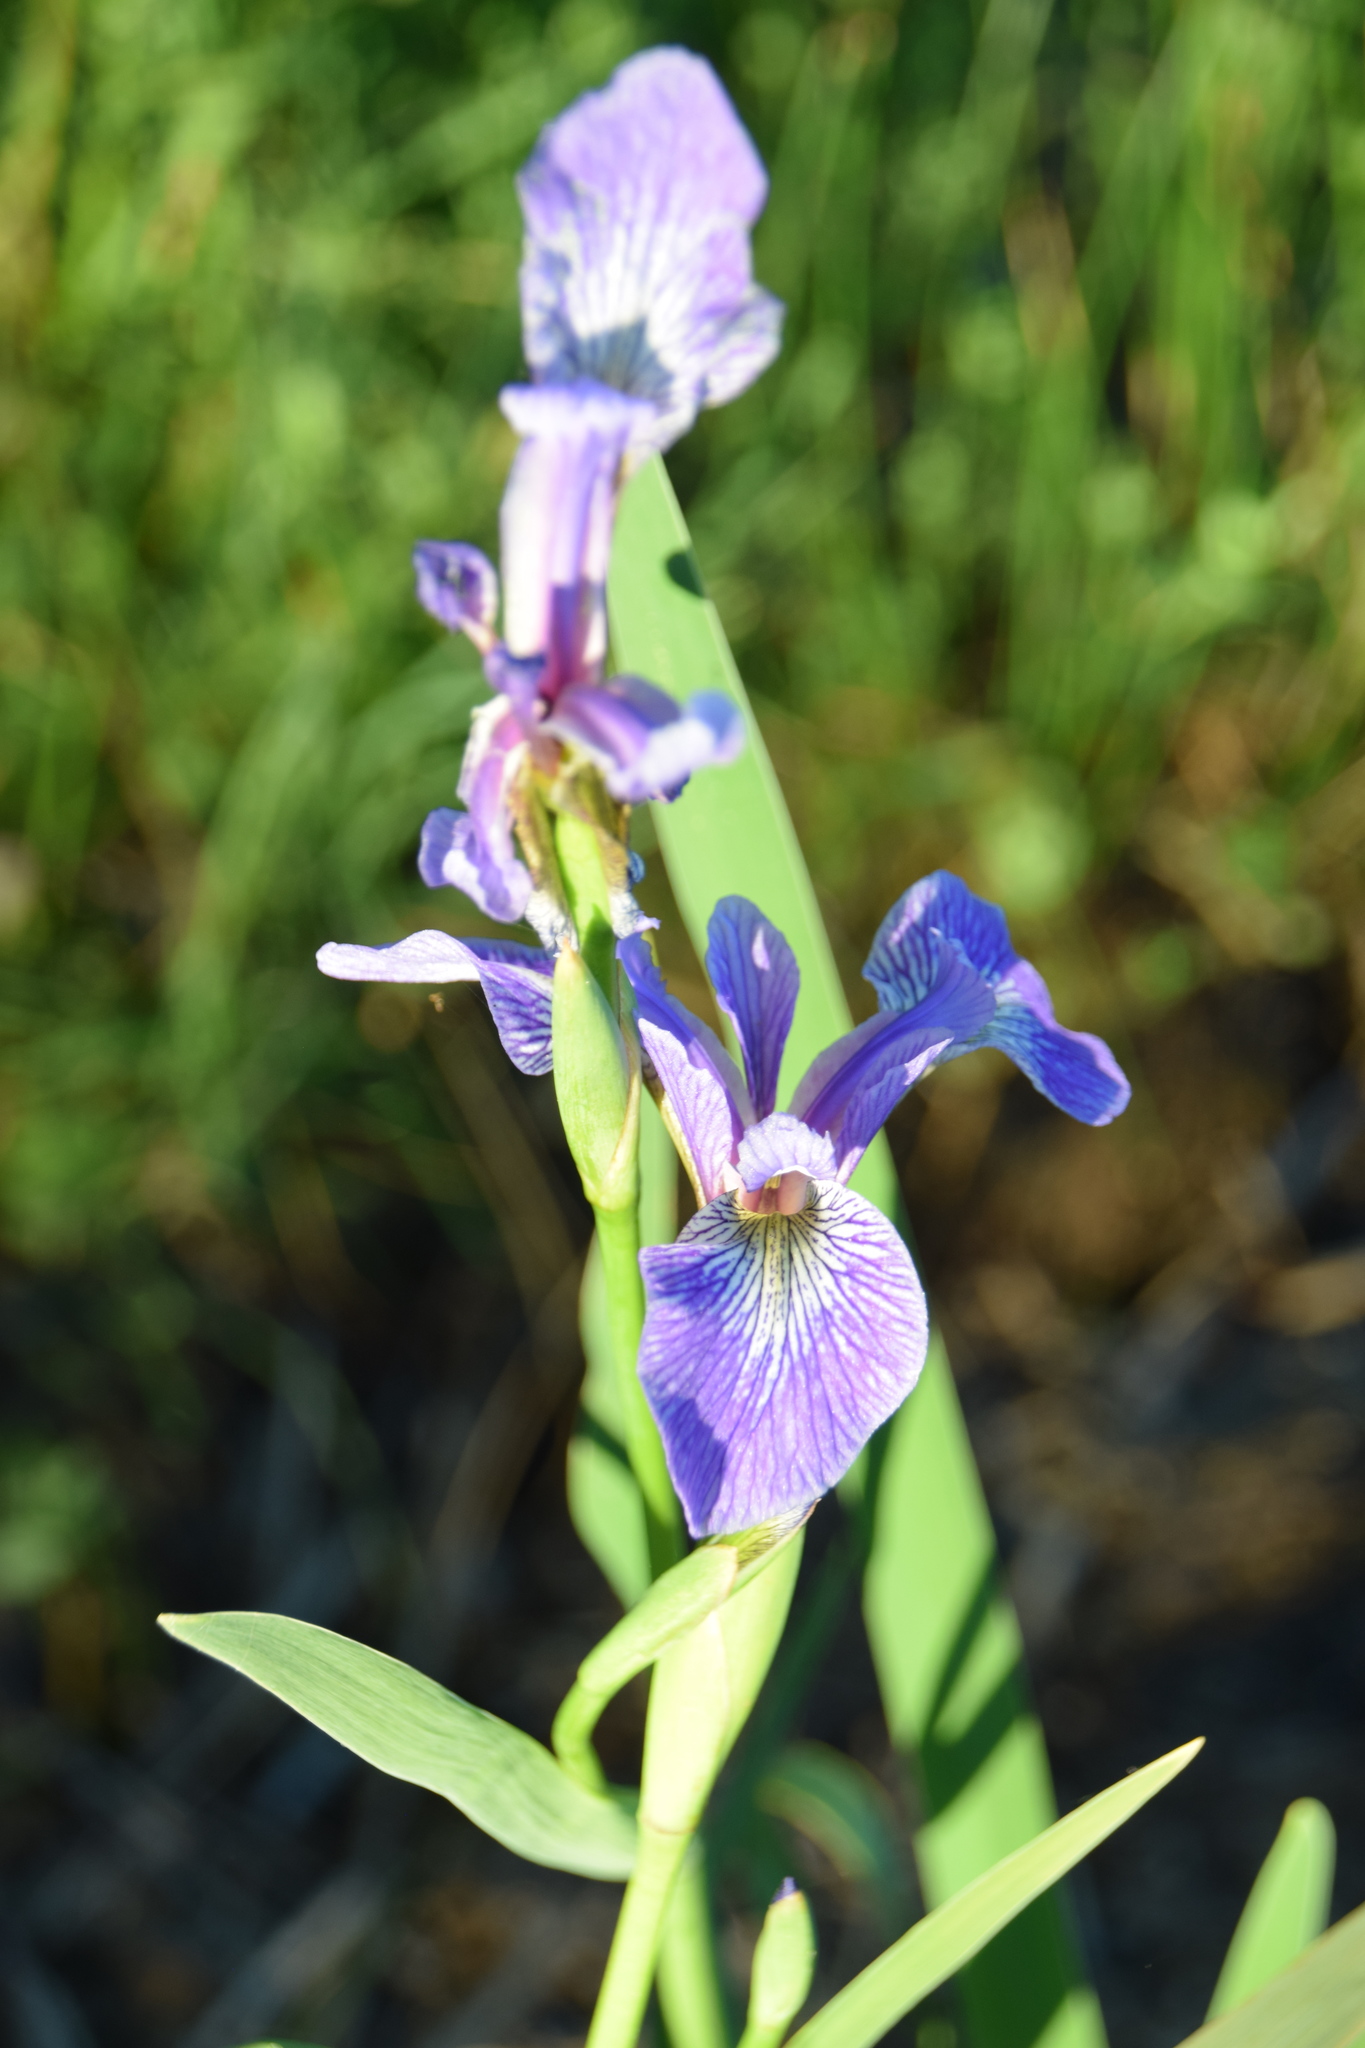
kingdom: Plantae
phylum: Tracheophyta
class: Liliopsida
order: Asparagales
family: Iridaceae
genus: Iris
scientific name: Iris versicolor
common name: Purple iris
